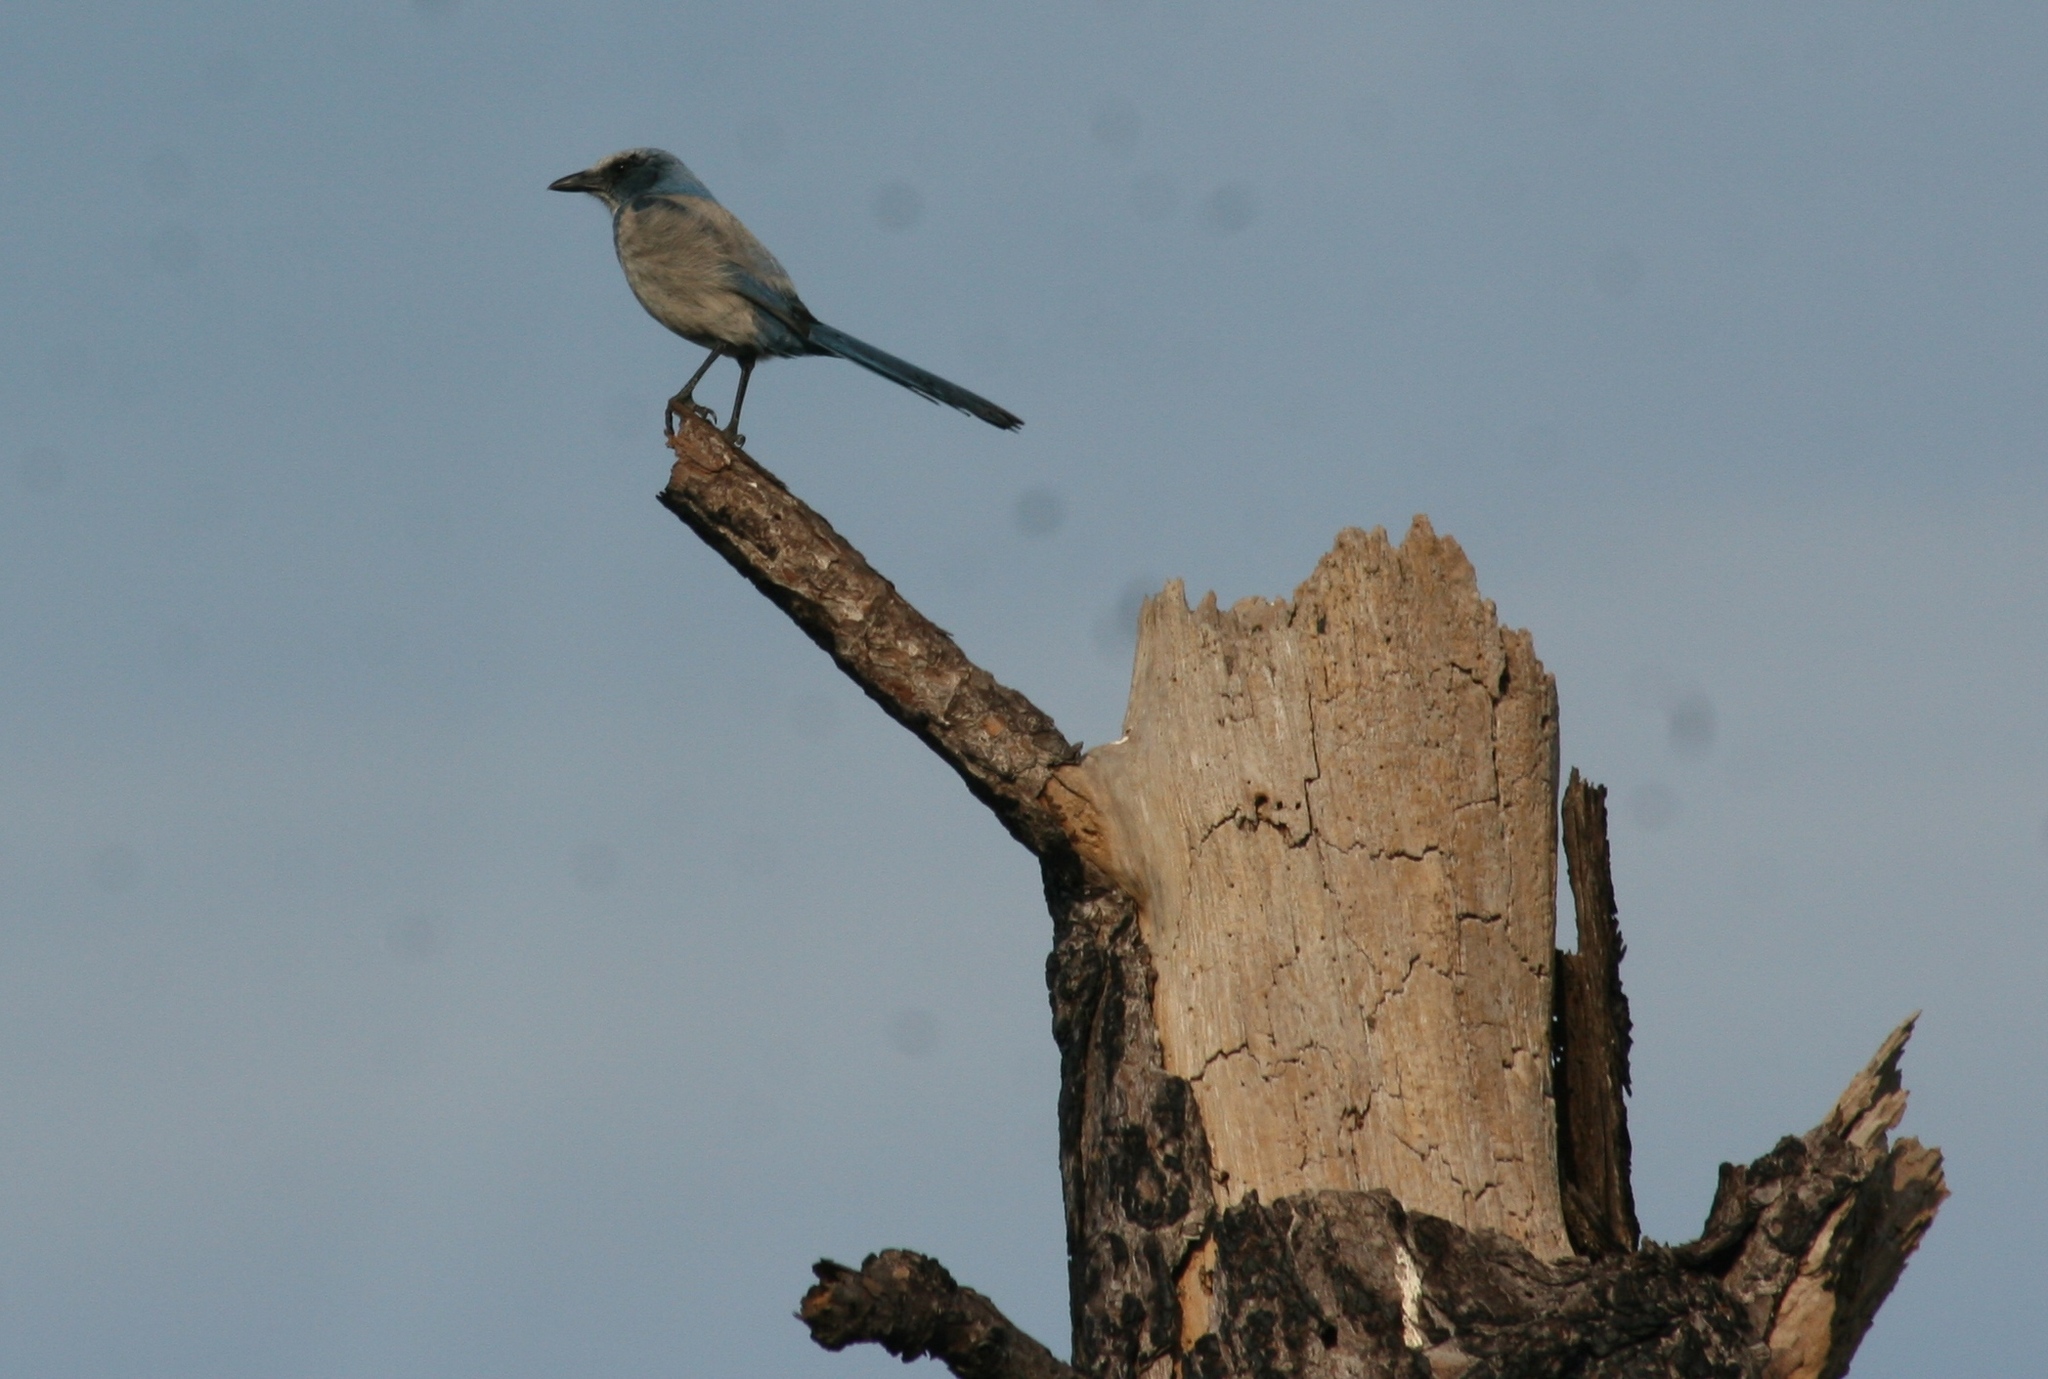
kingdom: Animalia
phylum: Chordata
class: Aves
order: Passeriformes
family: Corvidae
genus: Aphelocoma
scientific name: Aphelocoma coerulescens
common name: Florida scrub jay
